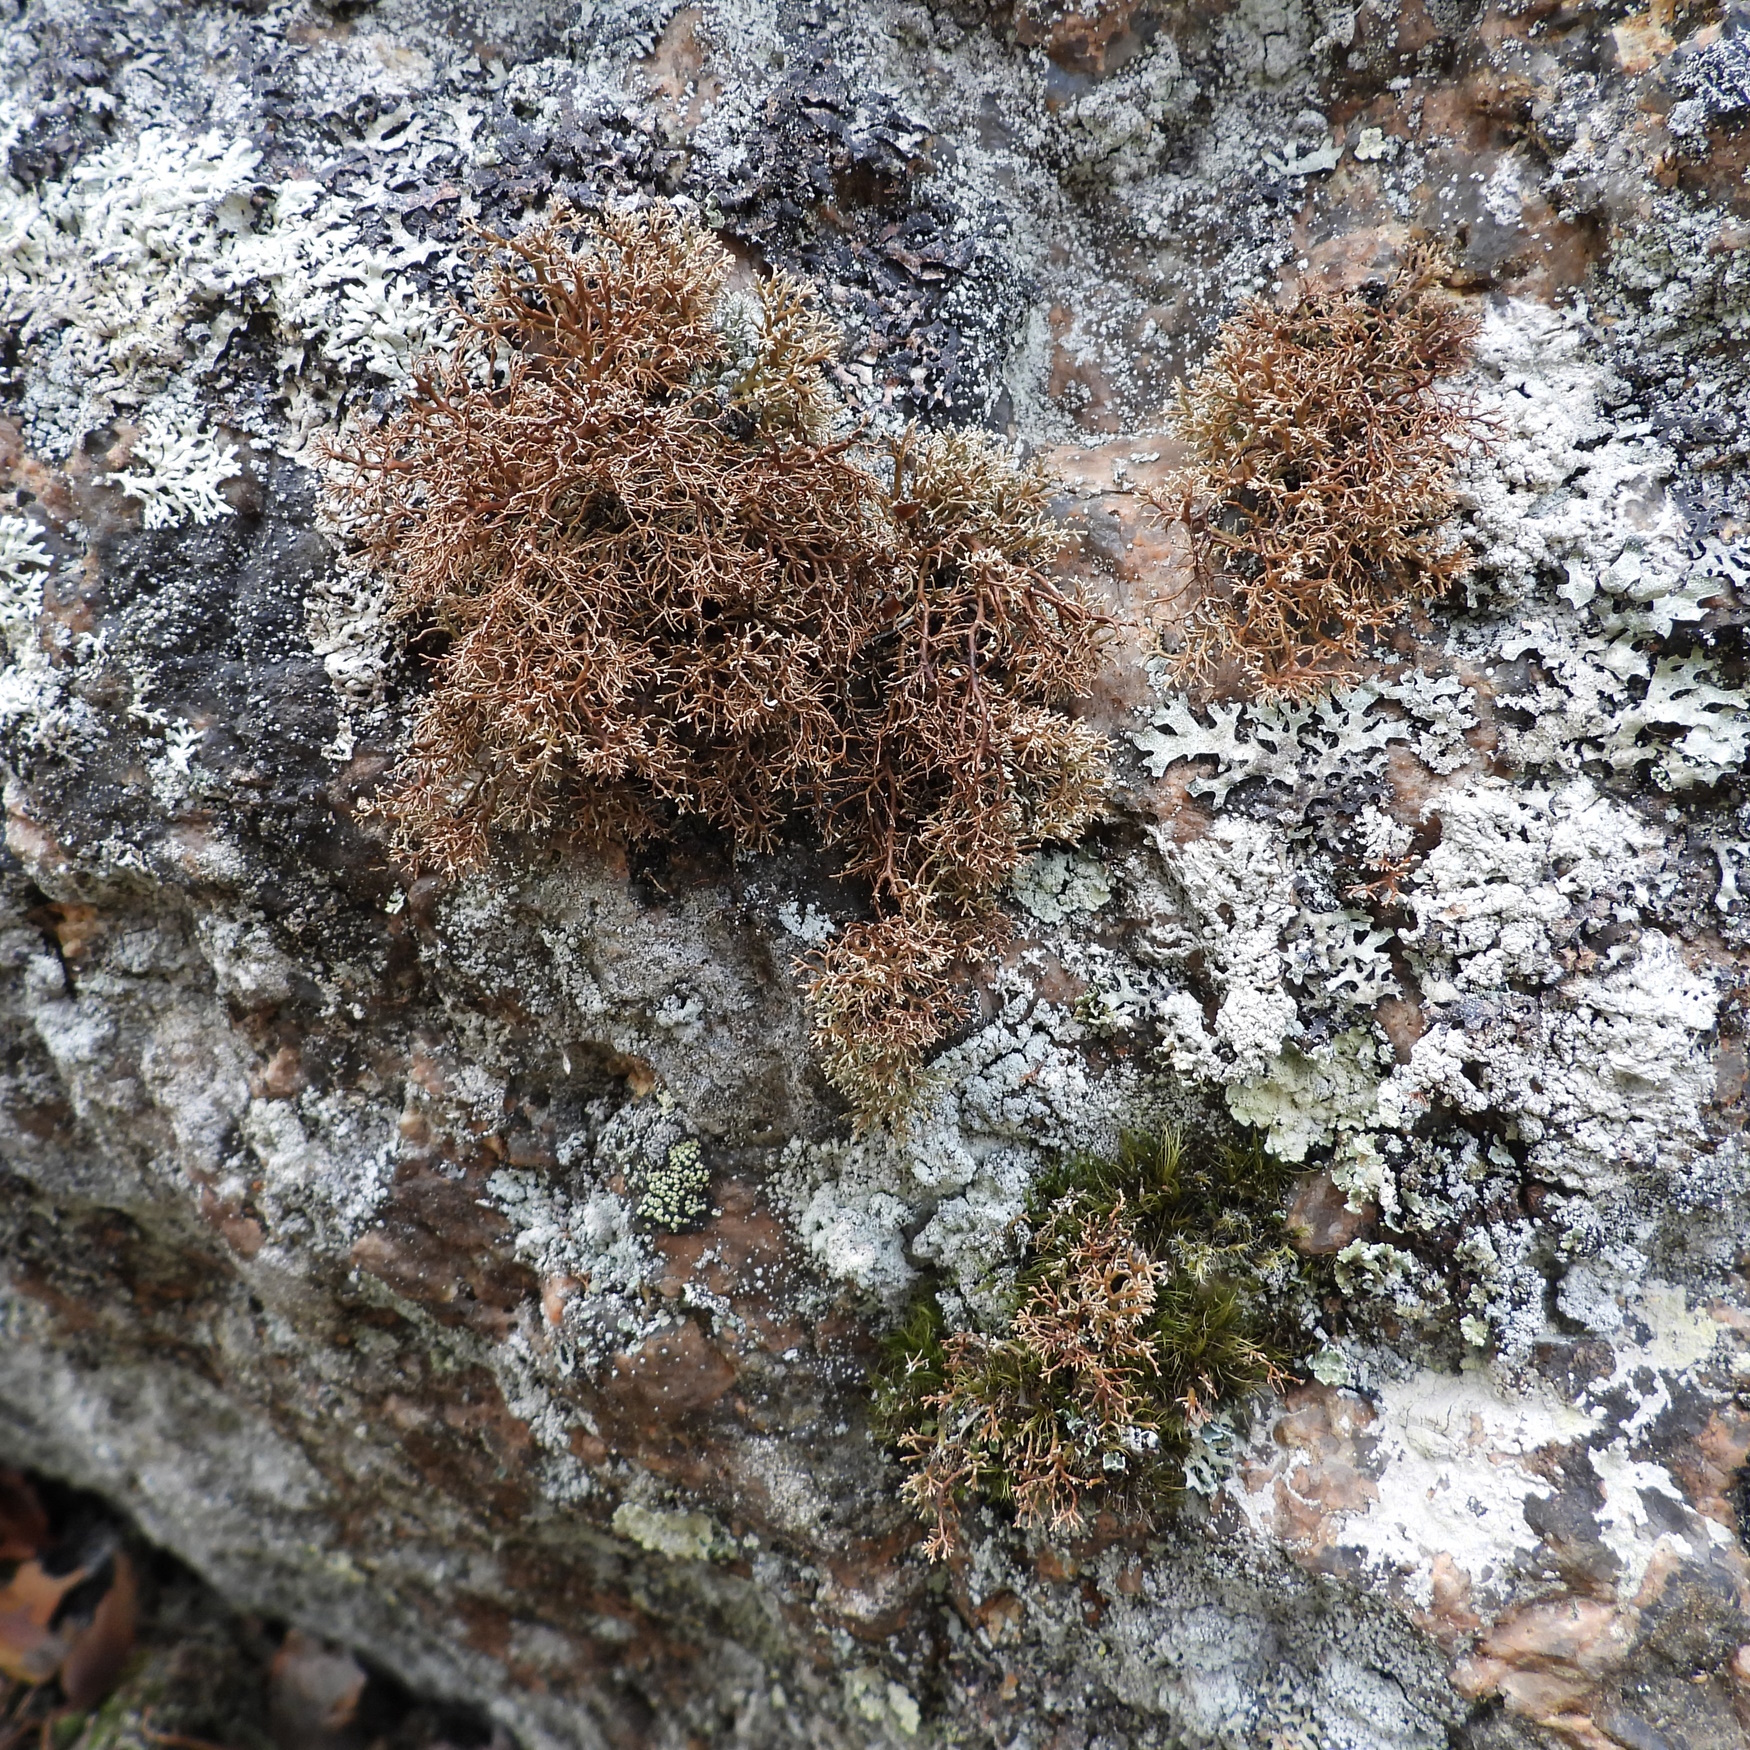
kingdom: Fungi
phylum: Ascomycota
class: Lecanoromycetes
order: Lecanorales
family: Sphaerophoraceae
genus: Sphaerophorus
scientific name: Sphaerophorus globosus
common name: Globe ball lichen
